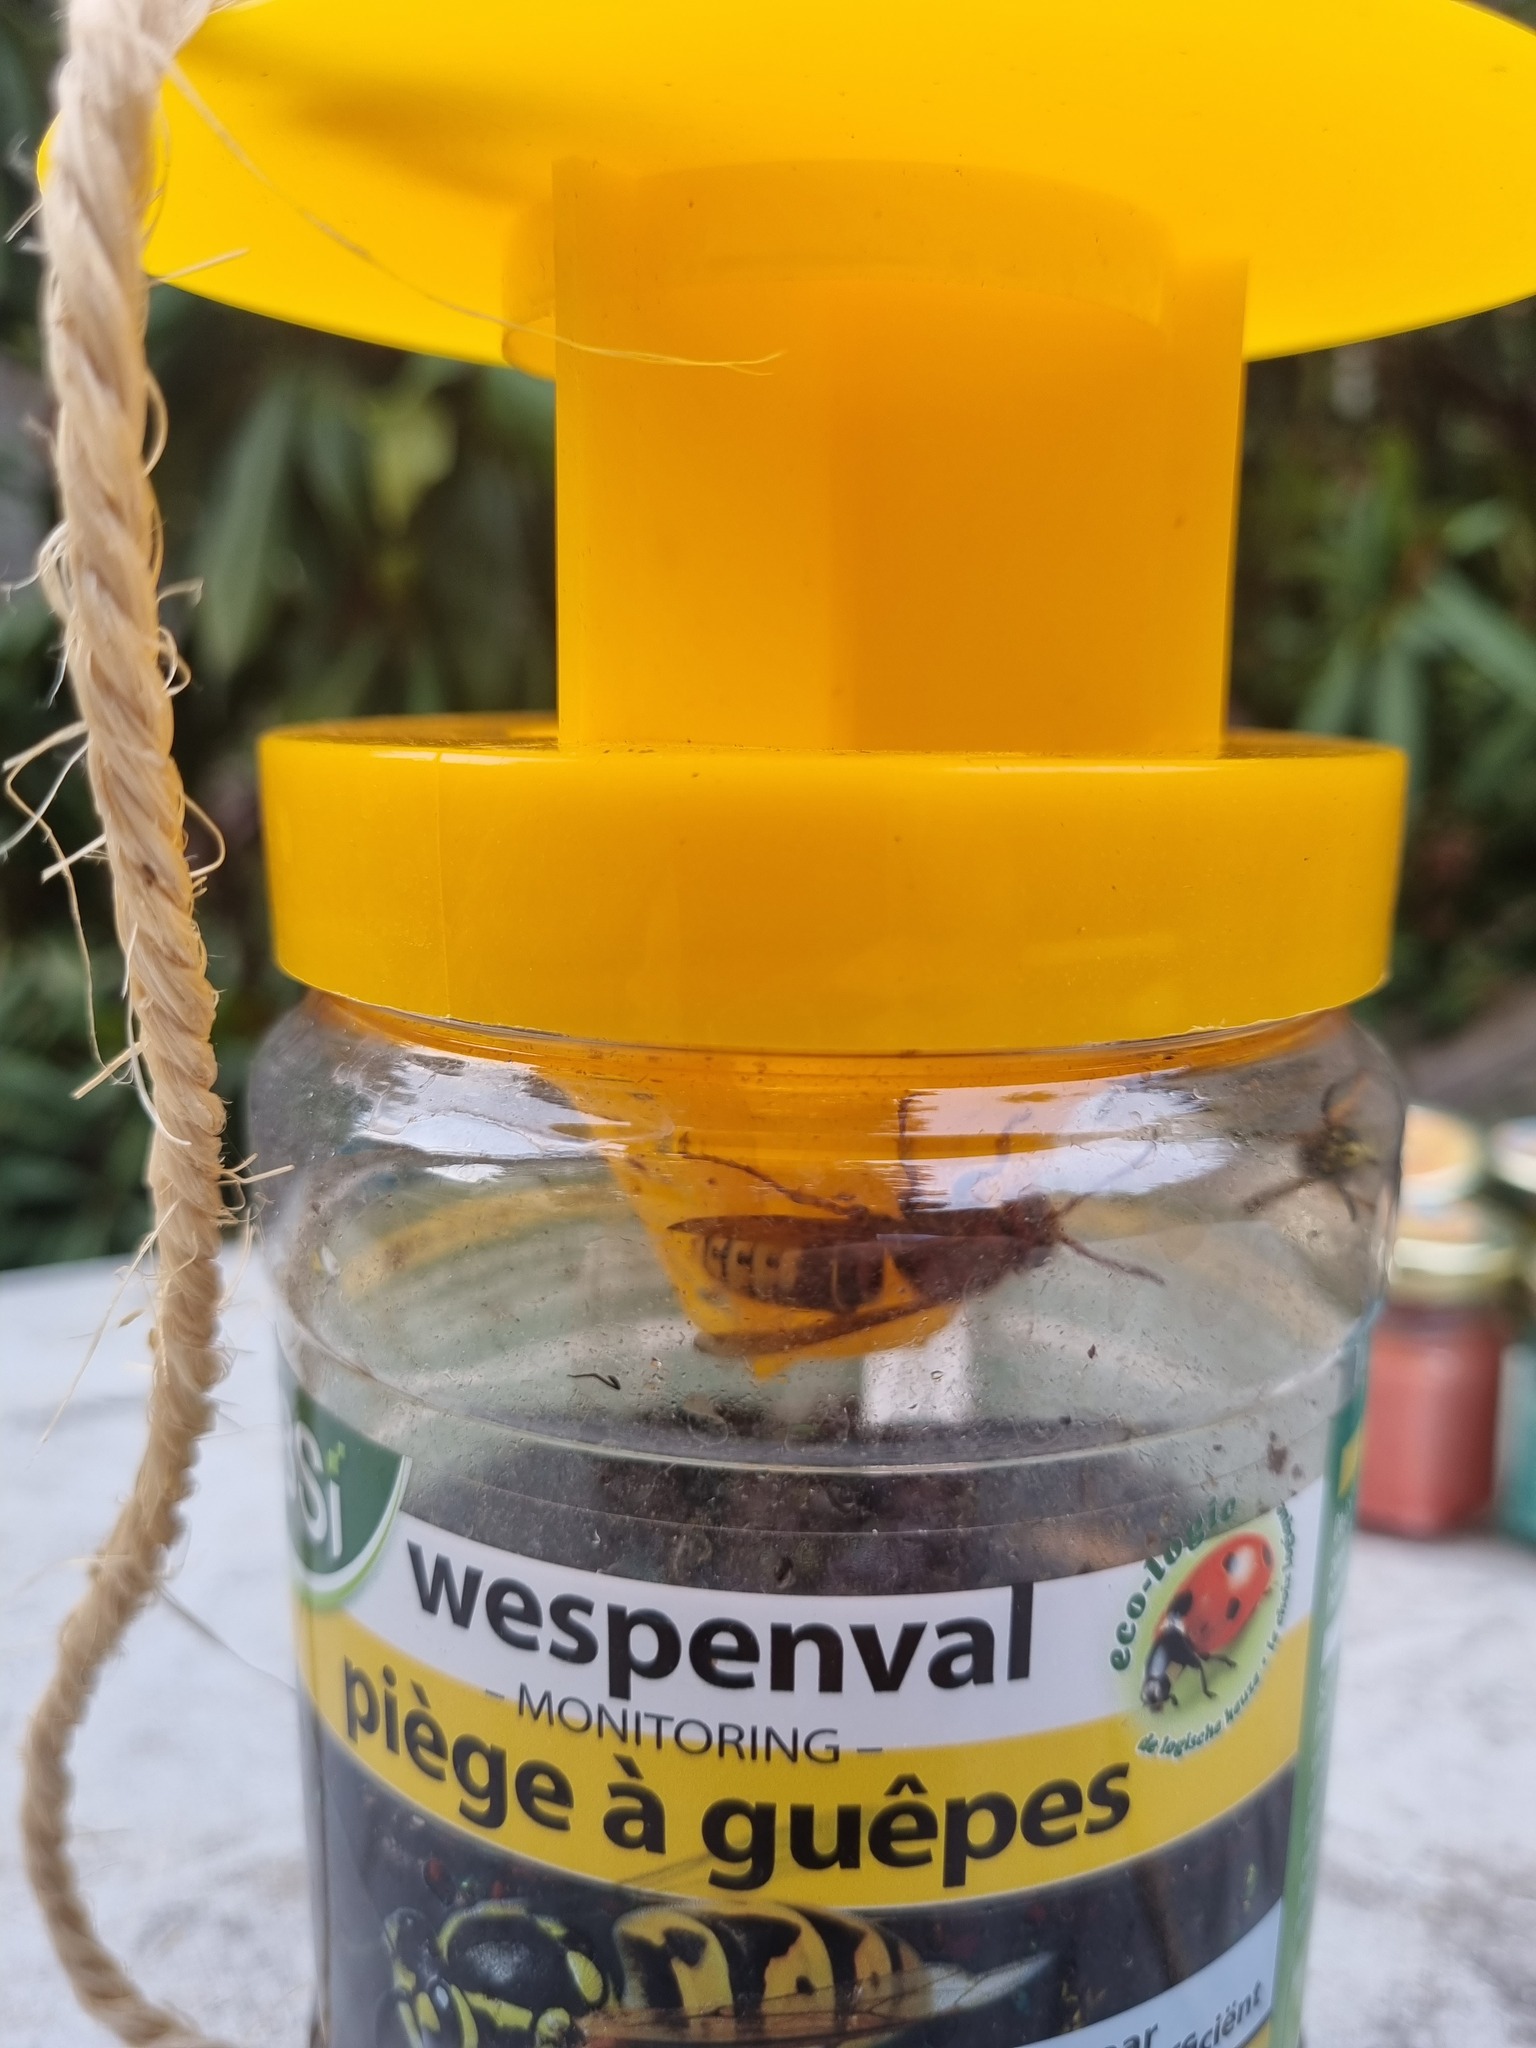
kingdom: Animalia
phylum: Arthropoda
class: Insecta
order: Hymenoptera
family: Vespidae
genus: Vespa
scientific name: Vespa crabro
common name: Hornet
